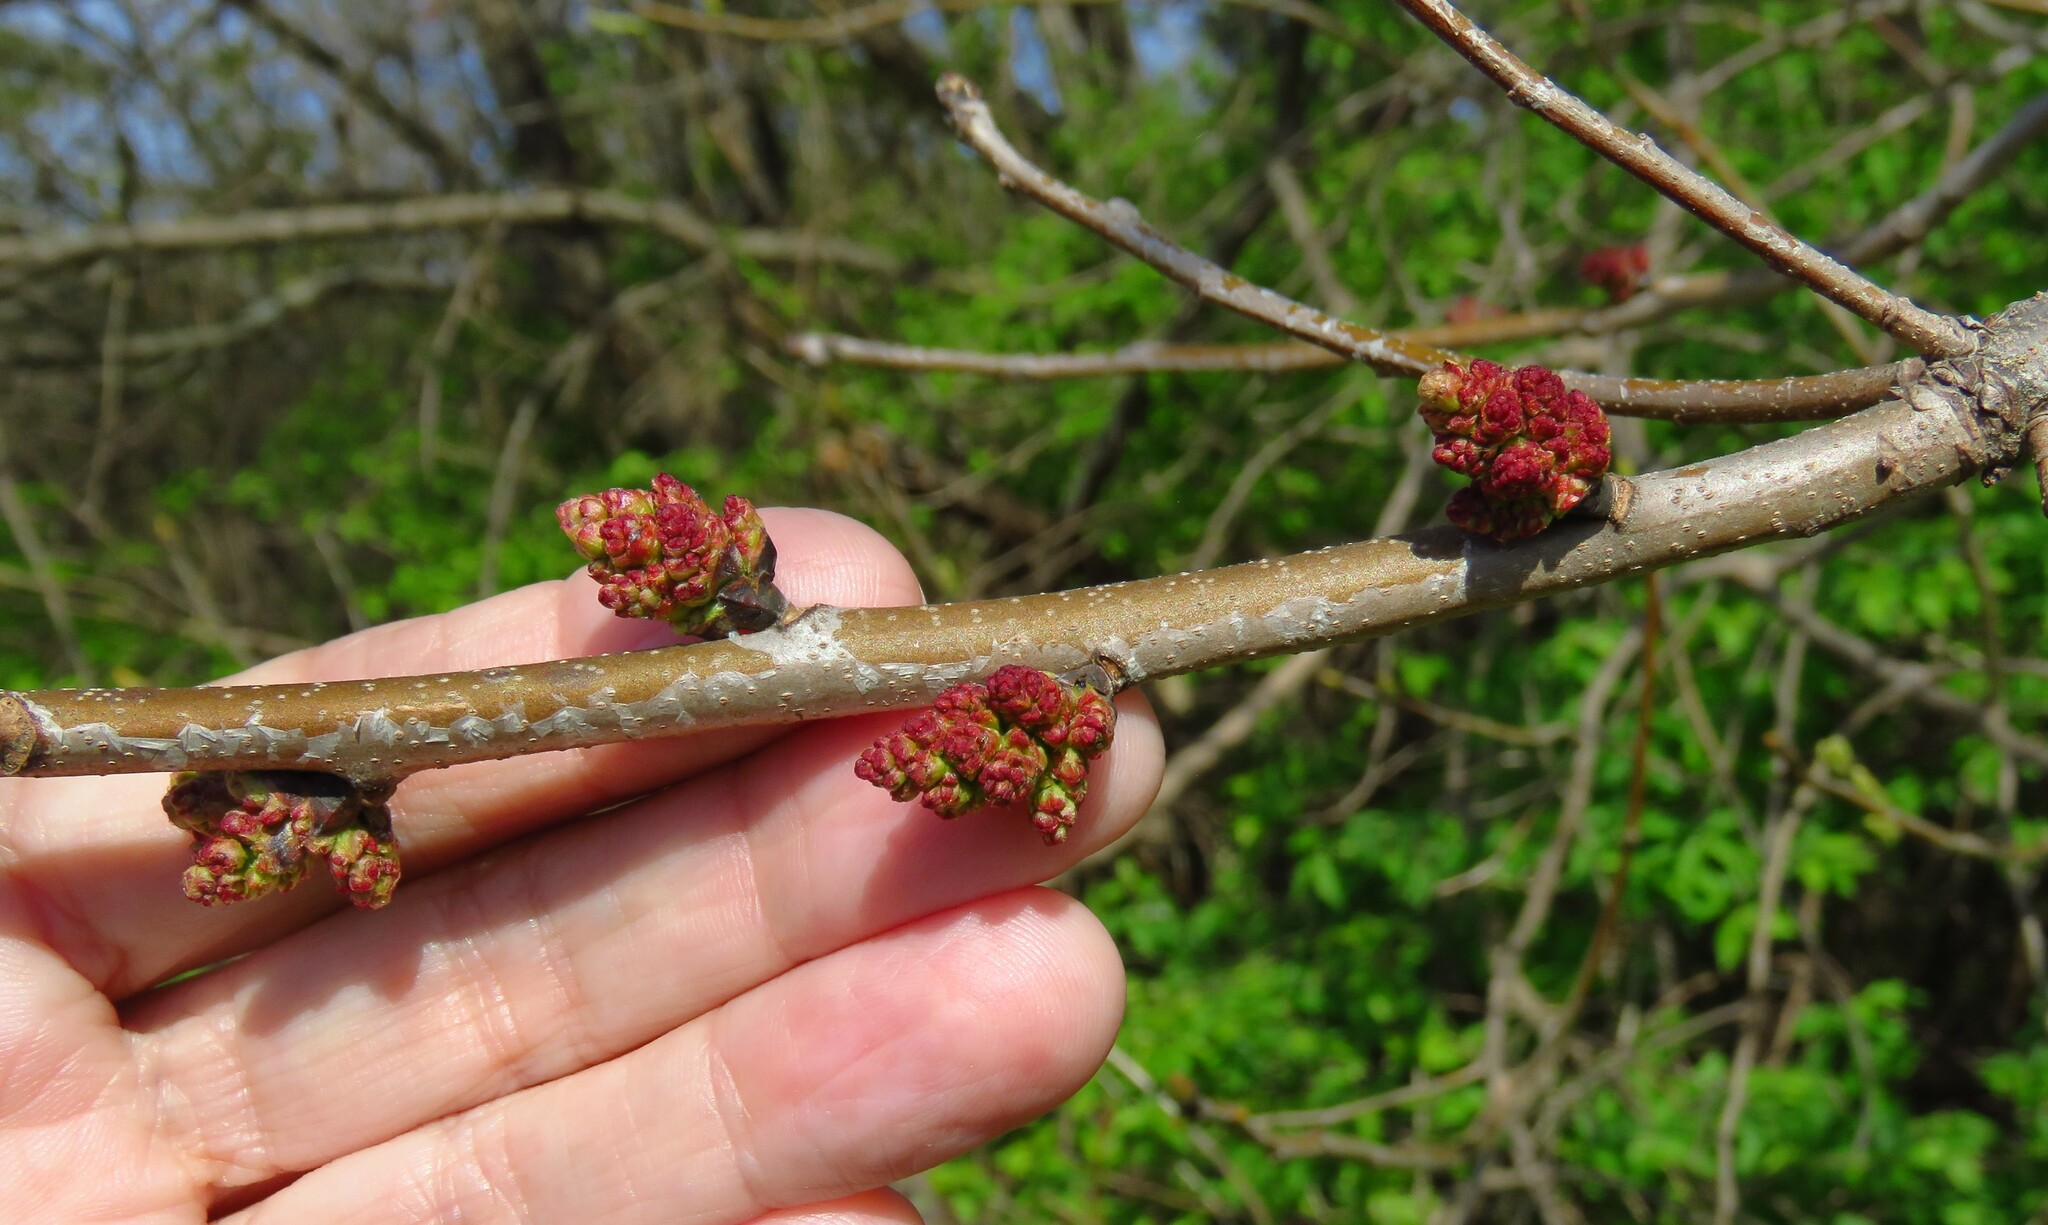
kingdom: Plantae
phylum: Tracheophyta
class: Magnoliopsida
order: Sapindales
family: Anacardiaceae
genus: Pistacia
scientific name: Pistacia chinensis
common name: Chinese pistache
